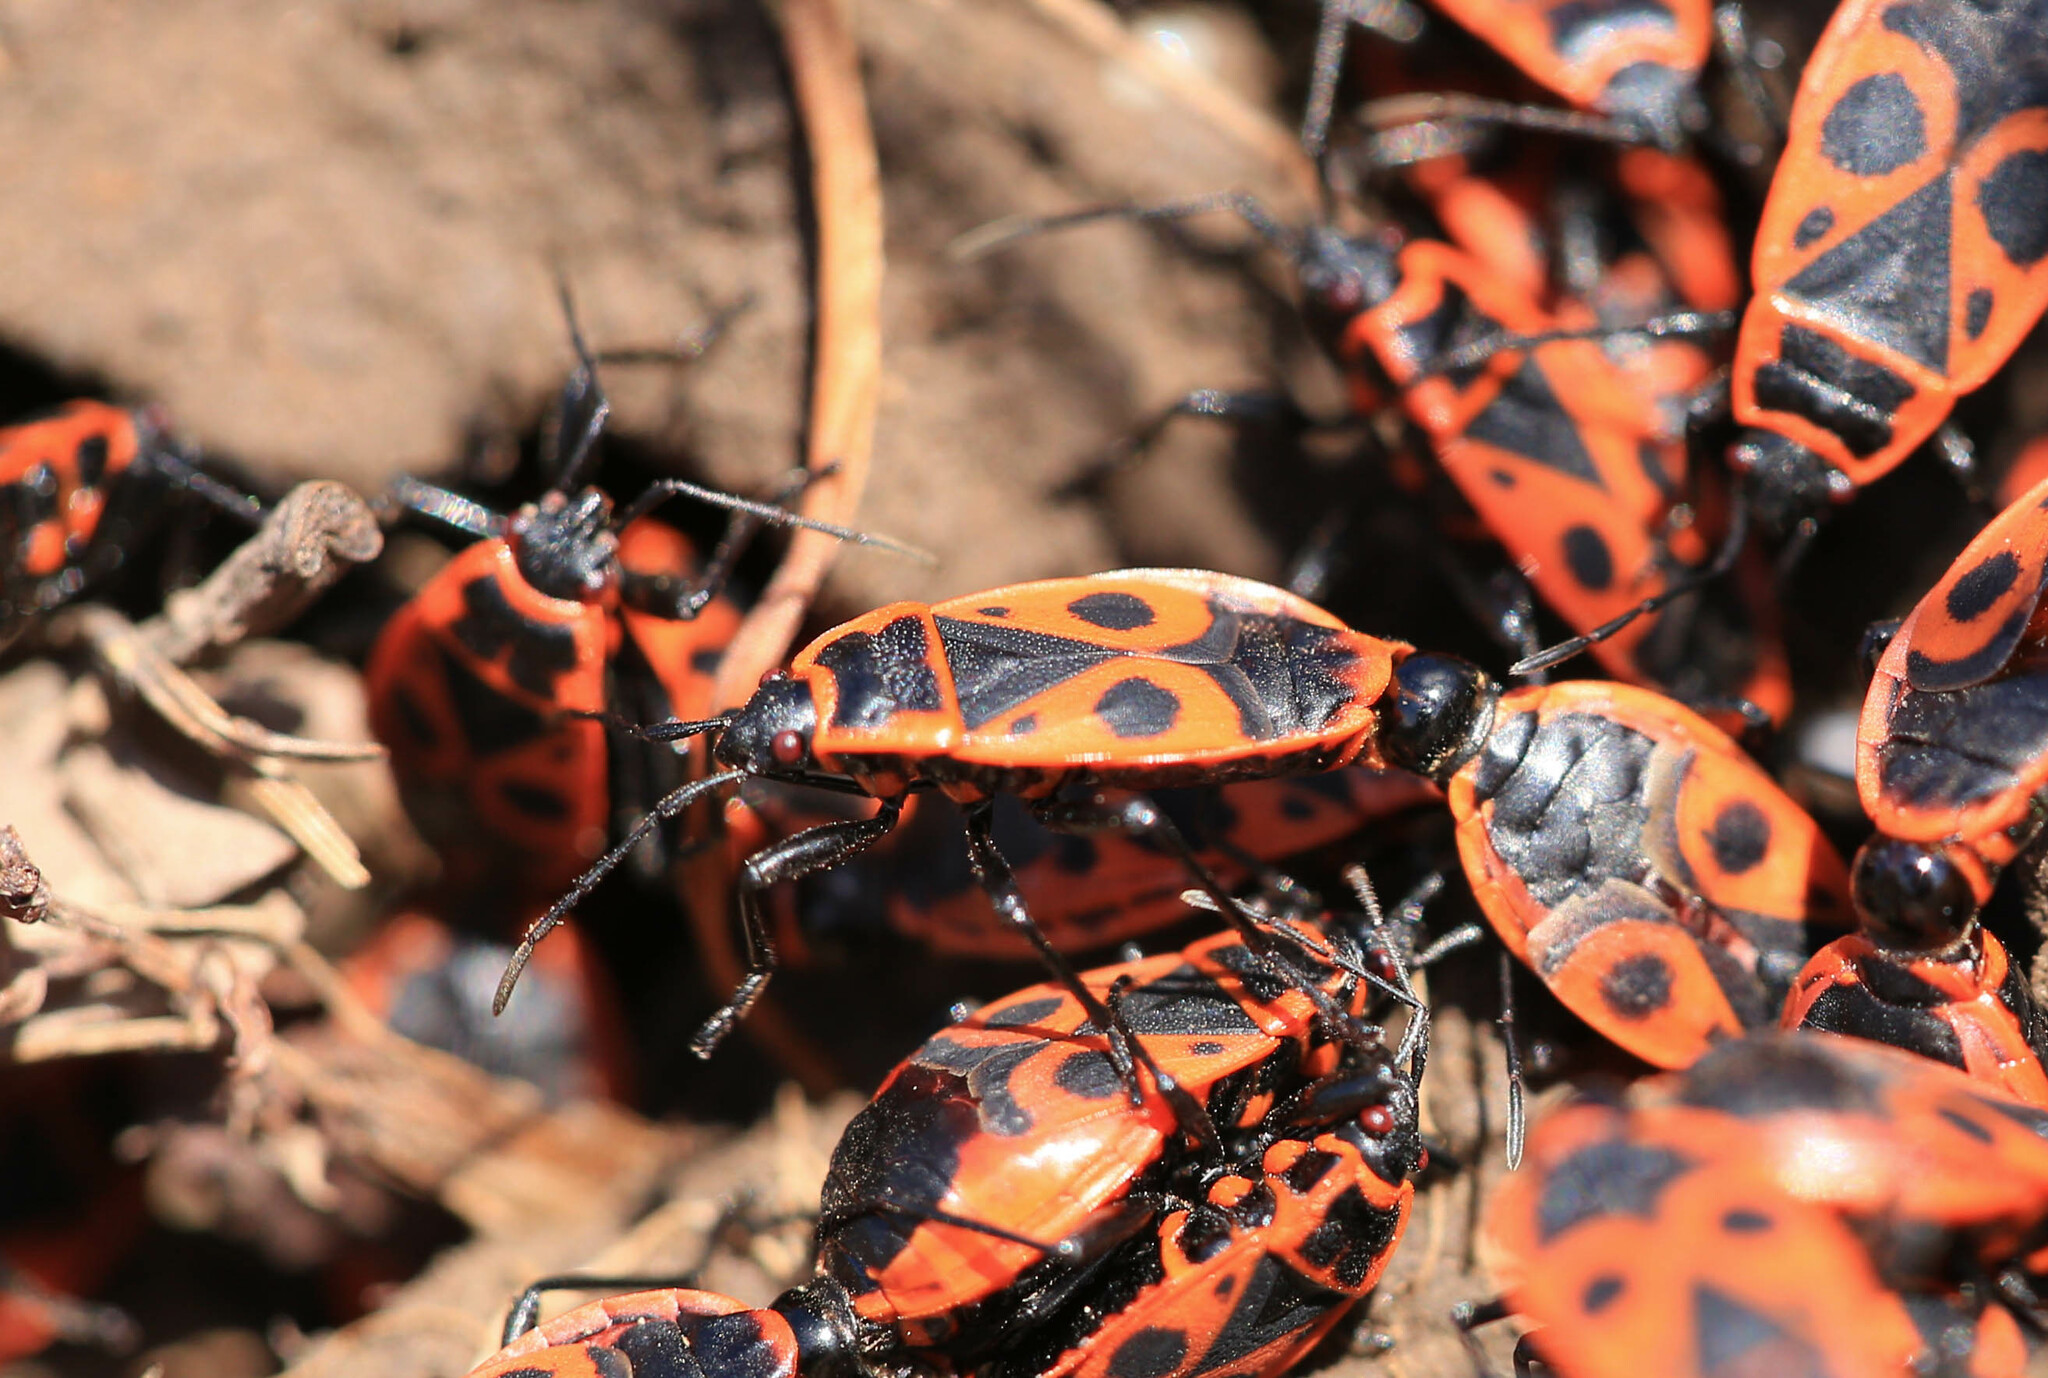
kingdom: Animalia
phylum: Arthropoda
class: Insecta
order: Hemiptera
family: Pyrrhocoridae
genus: Pyrrhocoris
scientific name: Pyrrhocoris apterus
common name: Firebug
